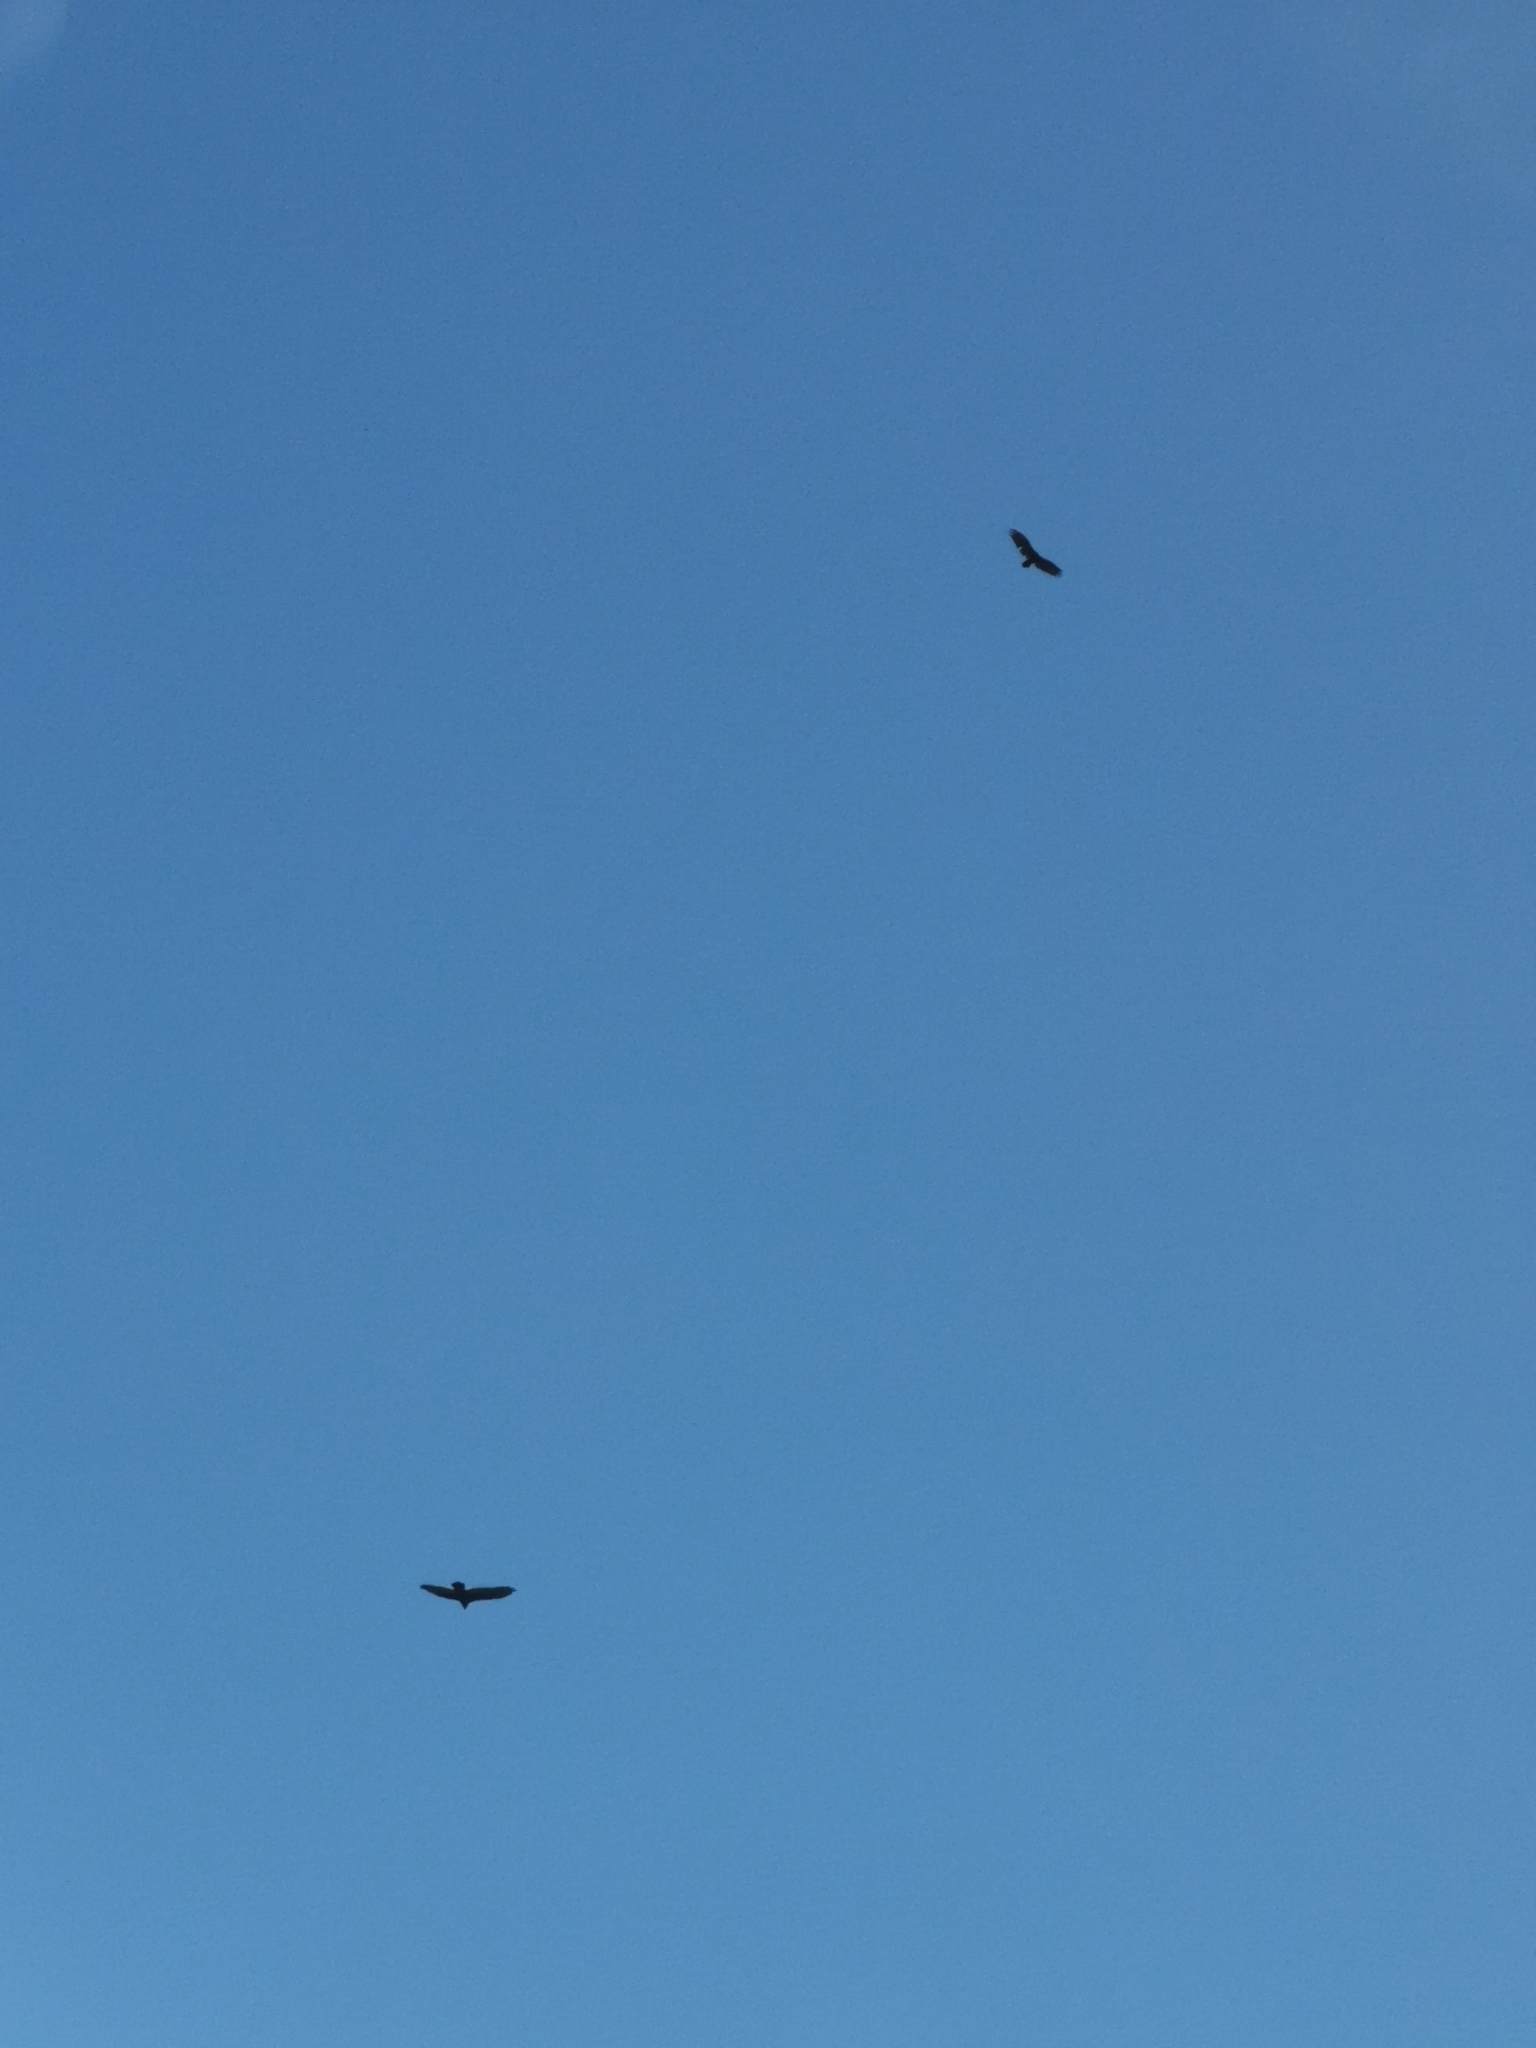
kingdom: Animalia
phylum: Chordata
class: Aves
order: Accipitriformes
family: Cathartidae
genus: Cathartes
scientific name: Cathartes aura
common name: Turkey vulture
